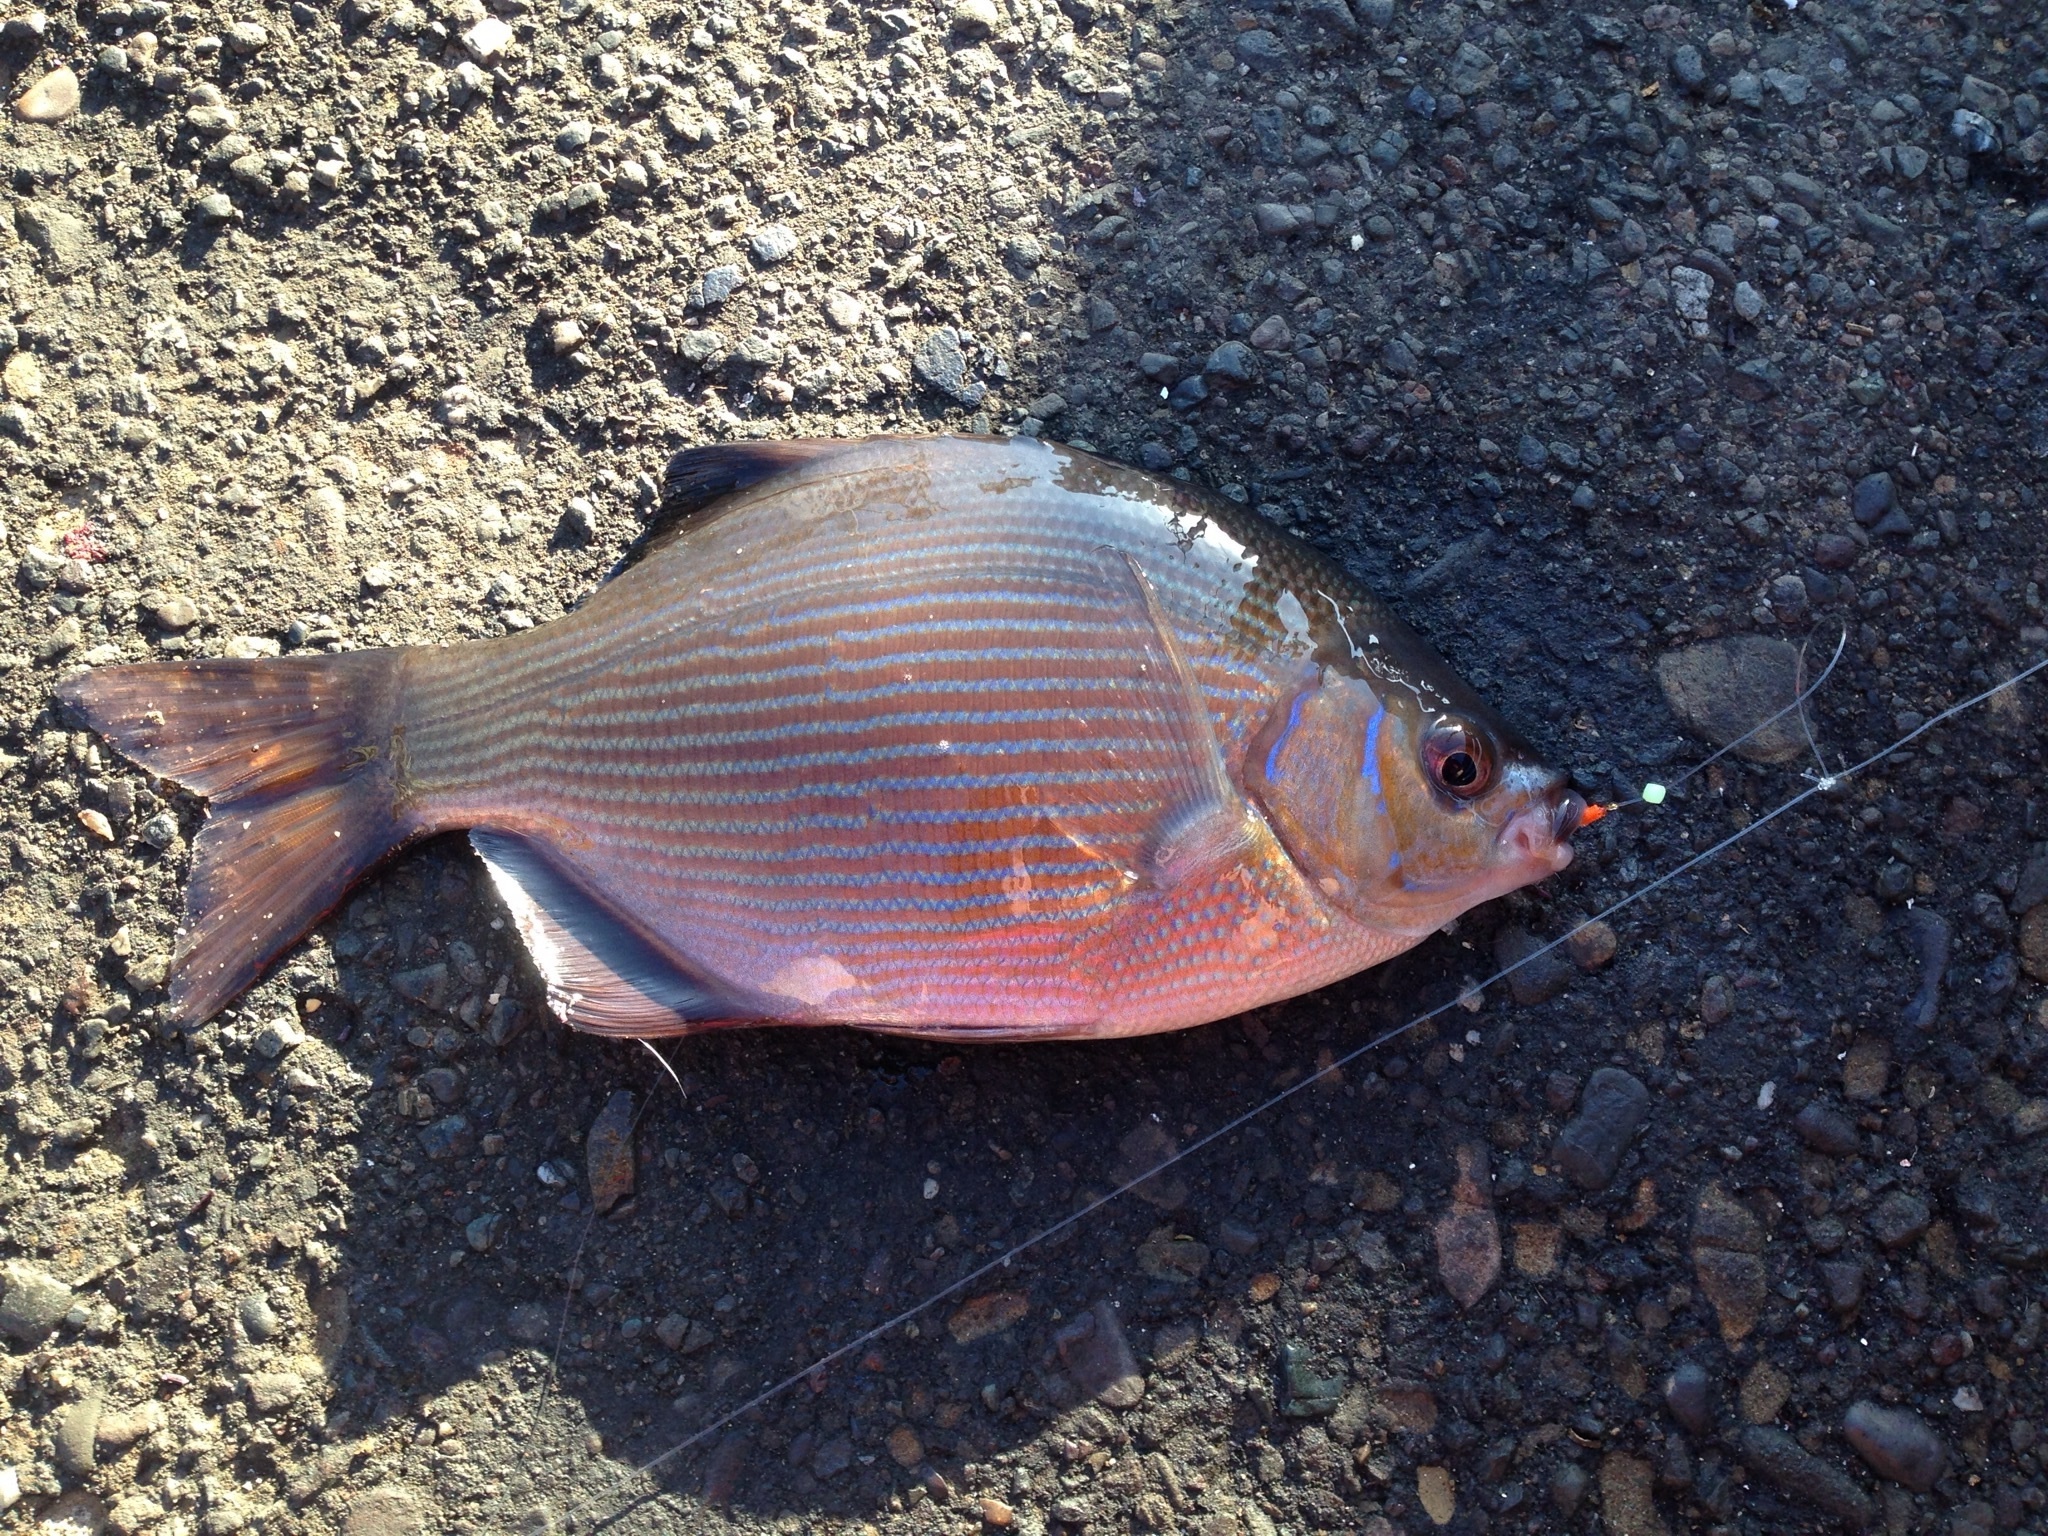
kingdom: Animalia
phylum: Chordata
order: Perciformes
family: Embiotocidae
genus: Embiotoca
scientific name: Embiotoca lateralis
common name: Striped surfperch
